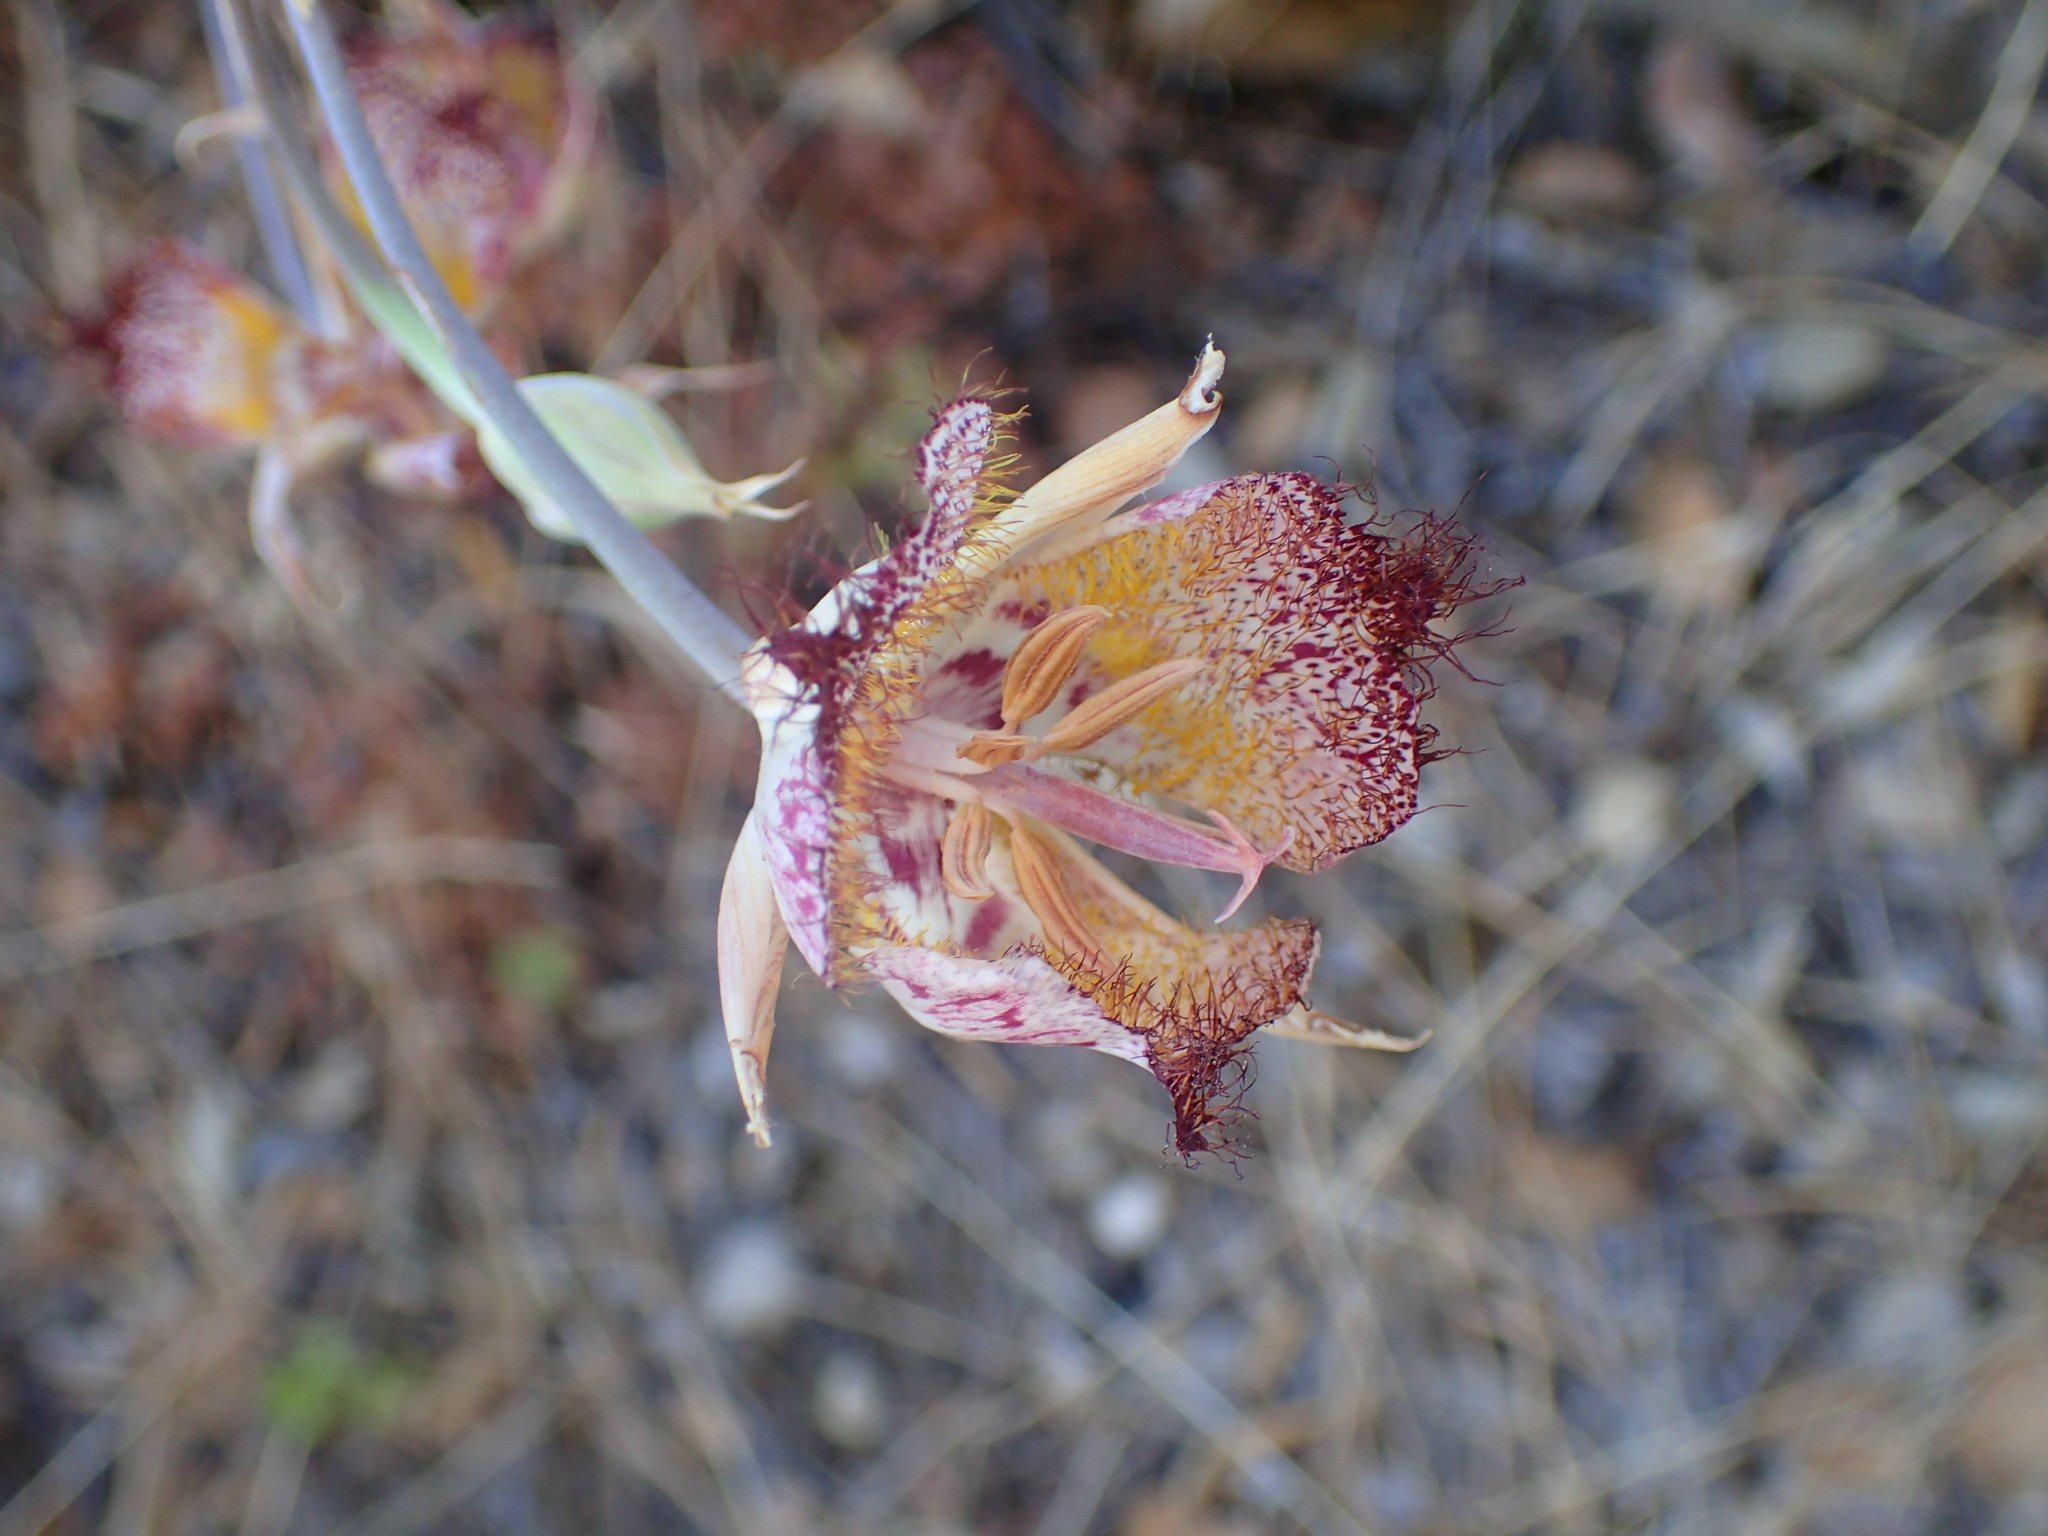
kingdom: Plantae
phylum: Tracheophyta
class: Liliopsida
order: Liliales
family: Liliaceae
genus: Calochortus
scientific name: Calochortus fimbriatus
